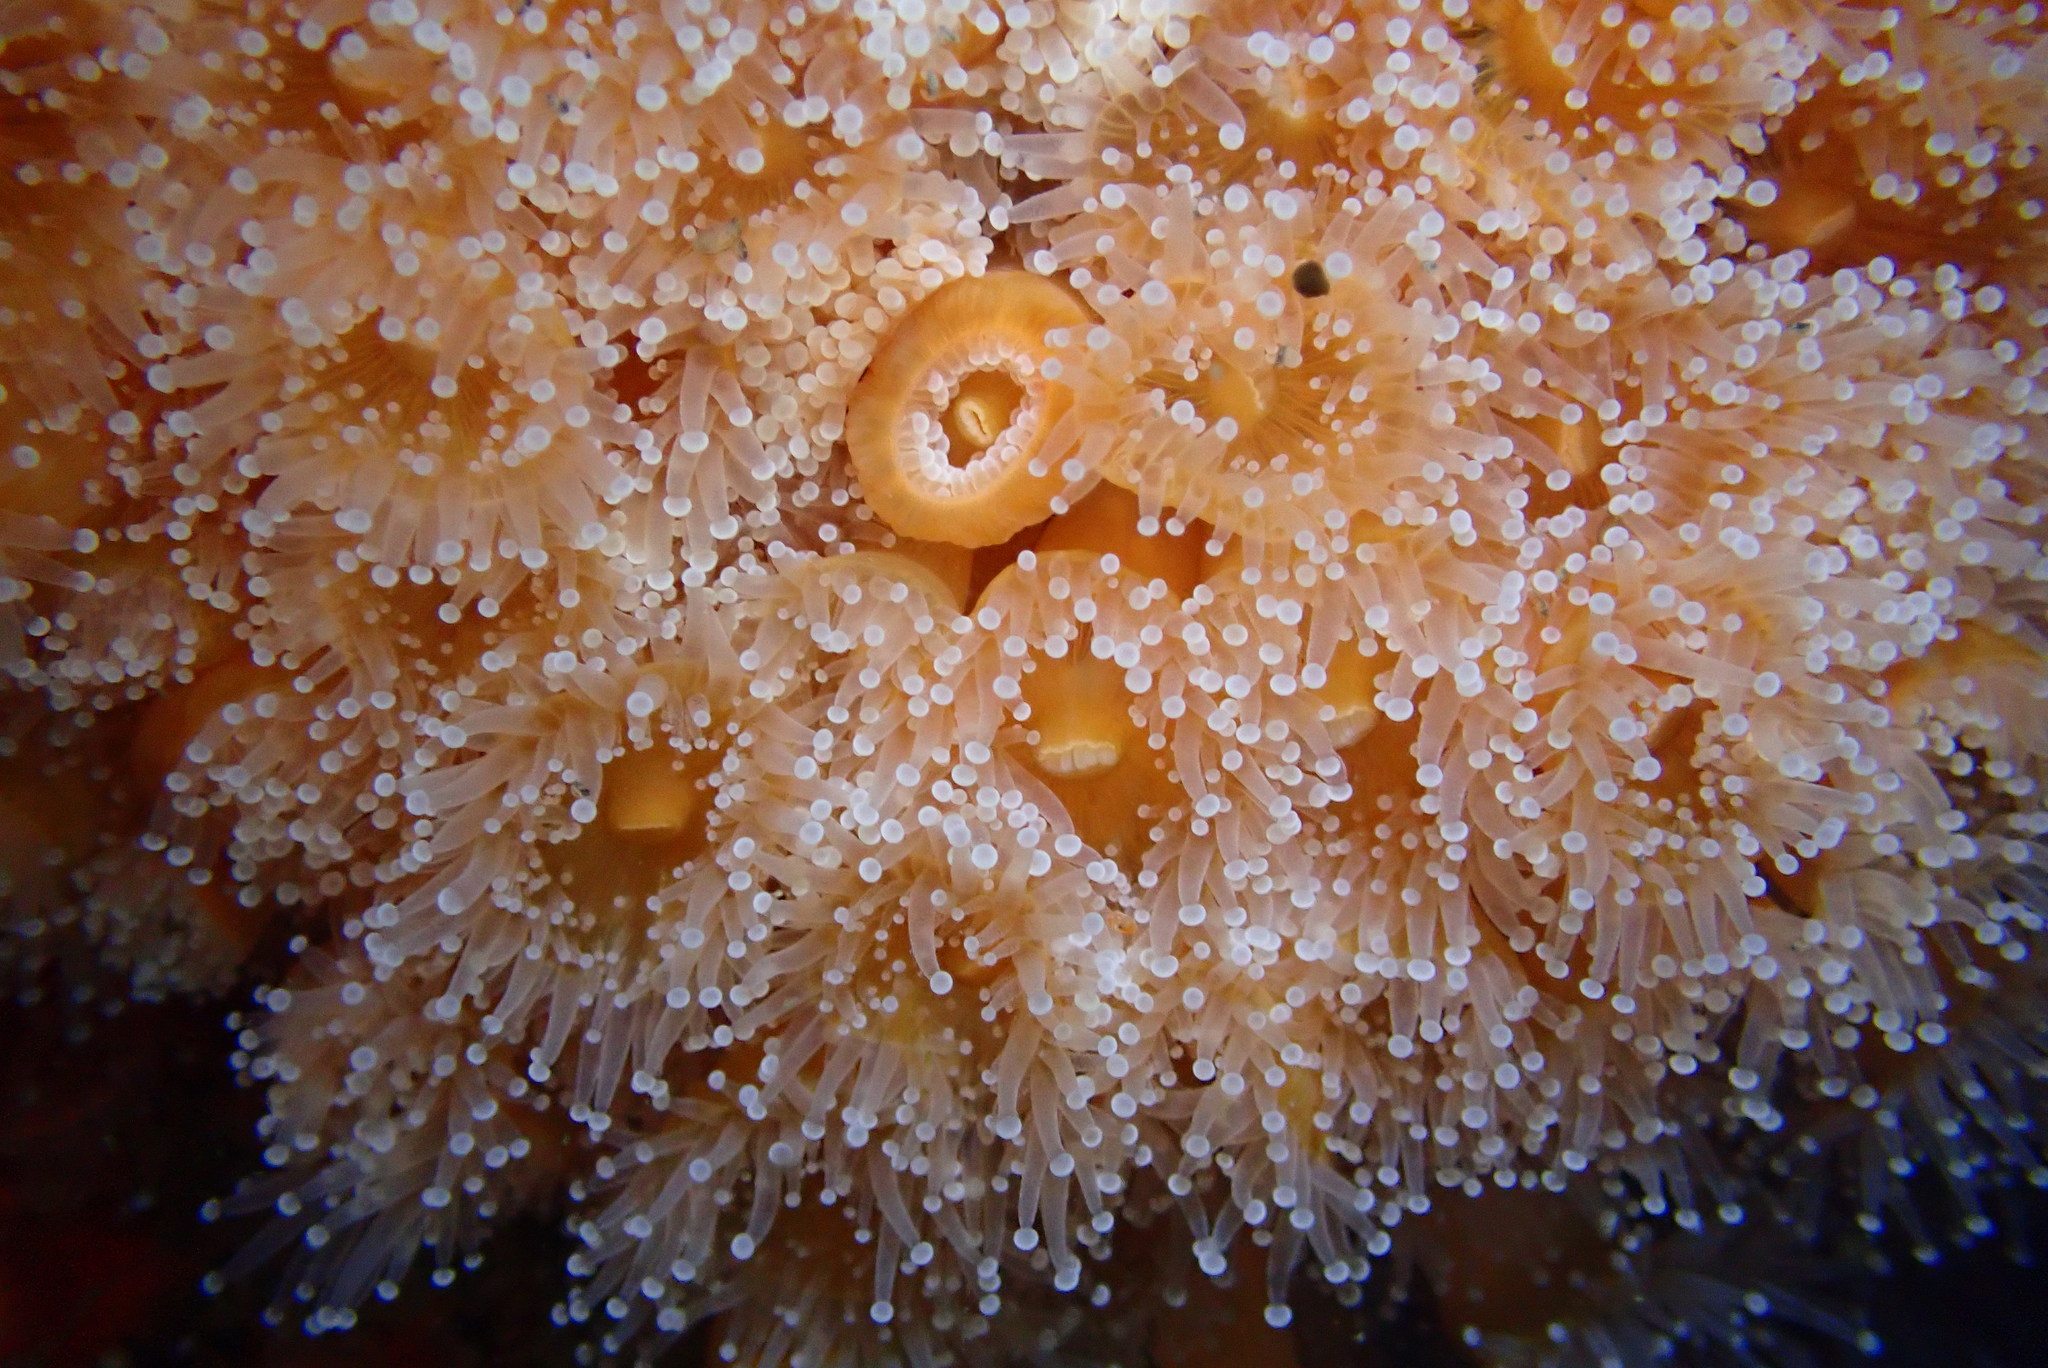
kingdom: Animalia
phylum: Cnidaria
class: Anthozoa
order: Corallimorpharia
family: Corallimorphidae
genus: Corynactis
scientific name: Corynactis californica
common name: Strawberry corallimorpharian
